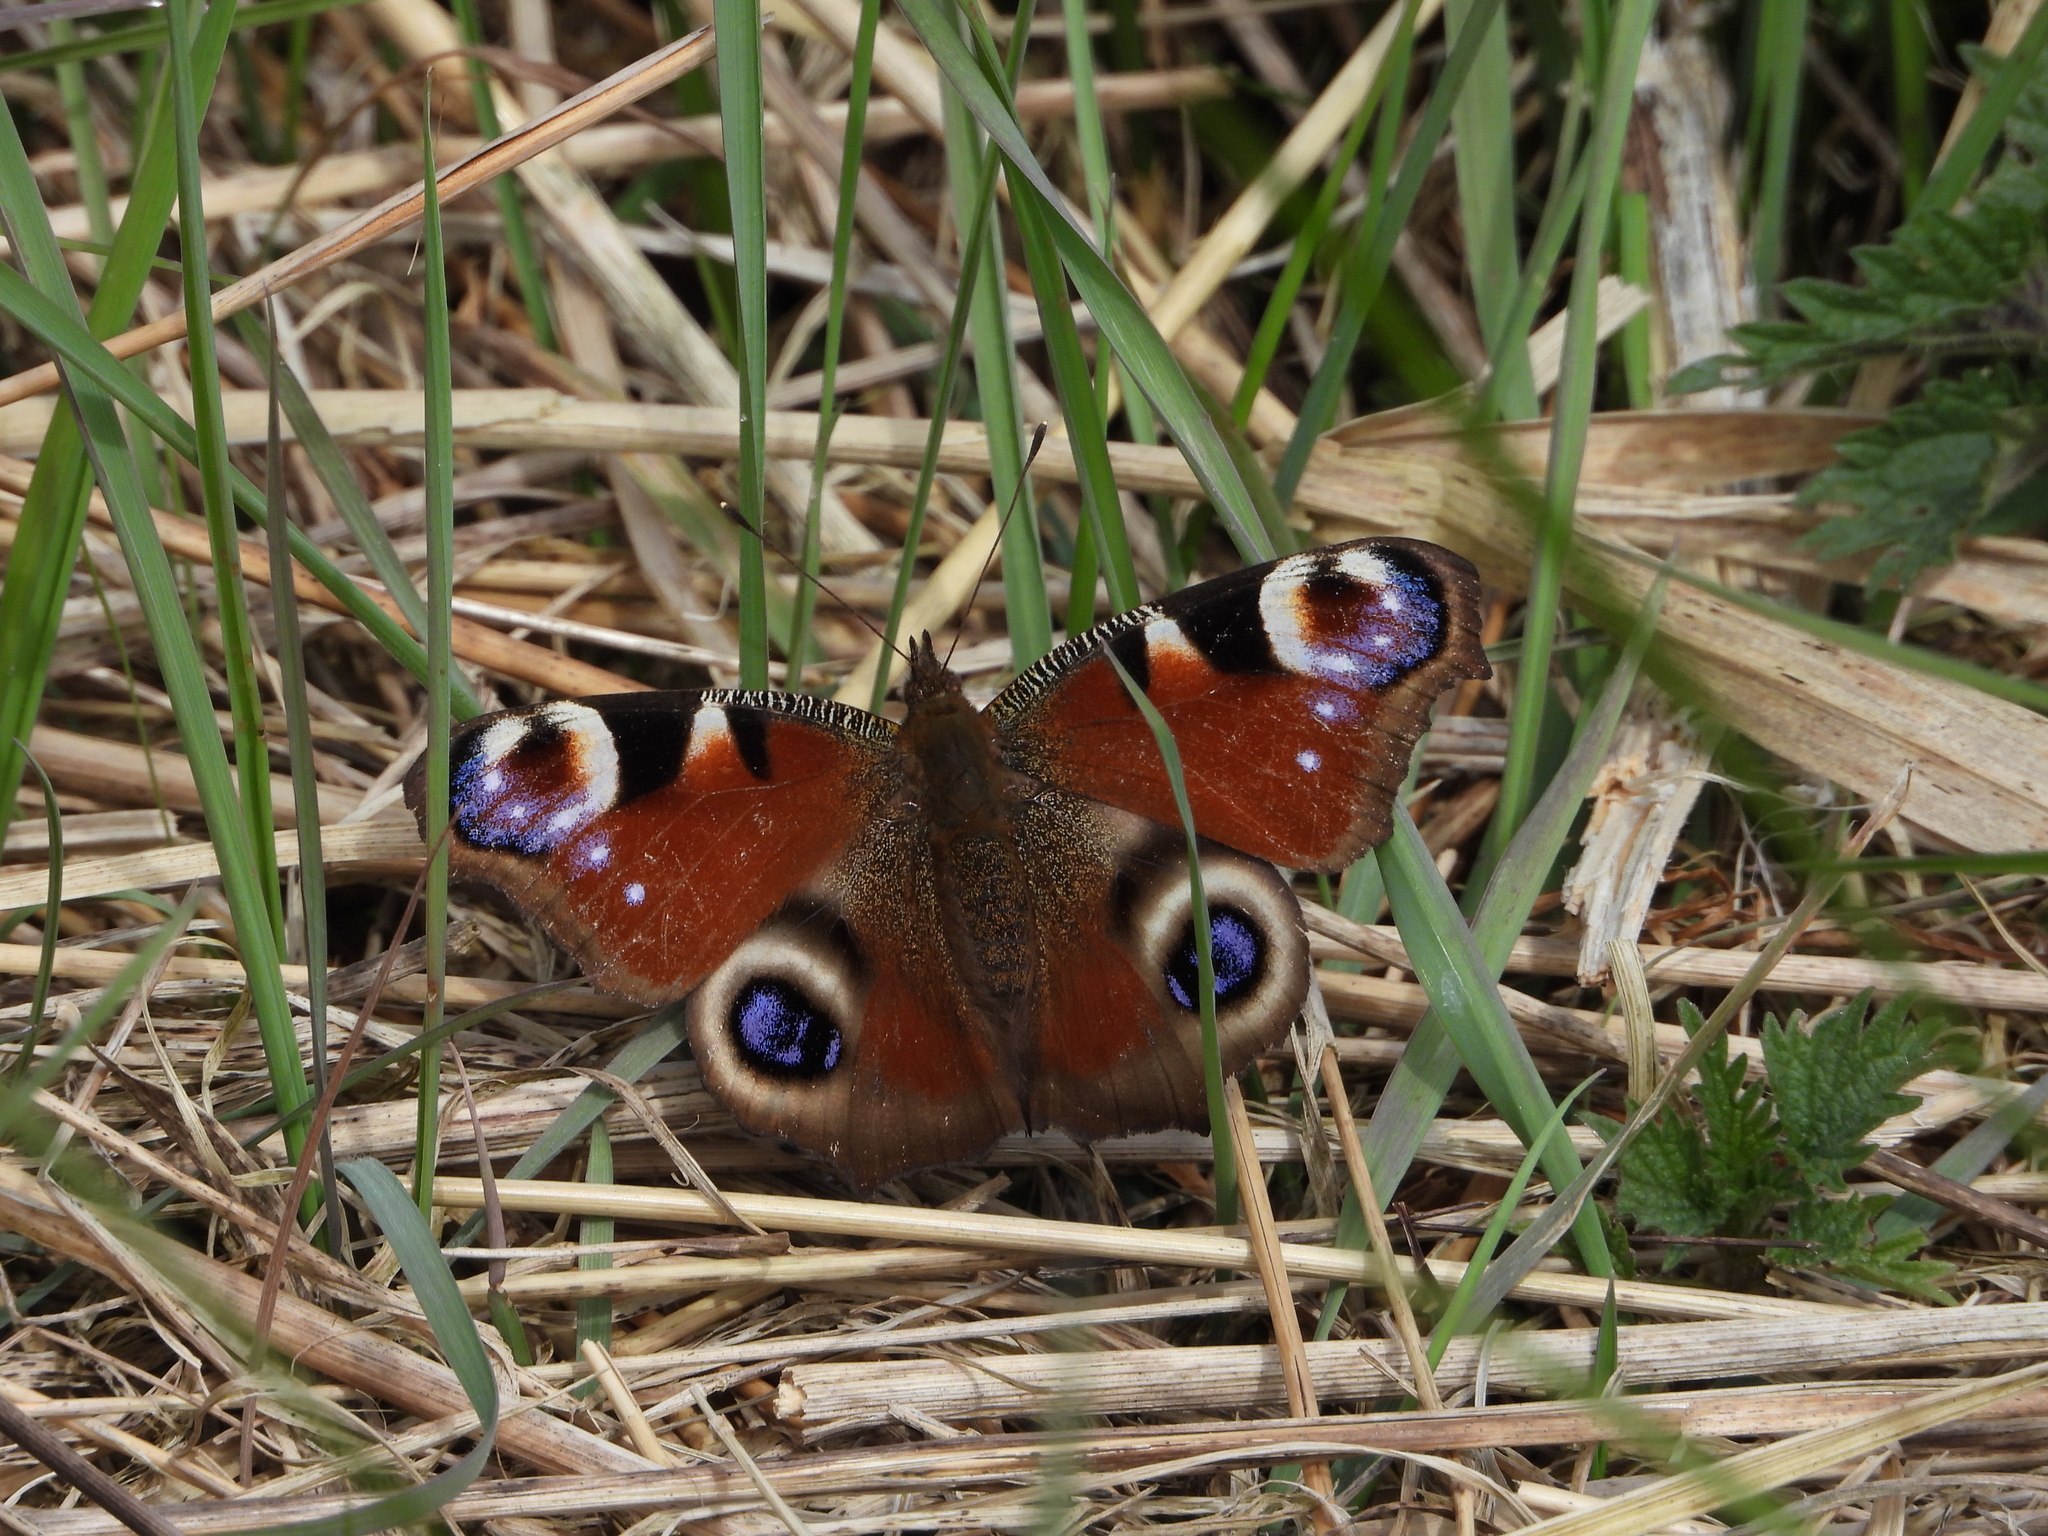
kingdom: Animalia
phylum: Arthropoda
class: Insecta
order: Lepidoptera
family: Nymphalidae
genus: Aglais
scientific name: Aglais io
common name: Peacock
